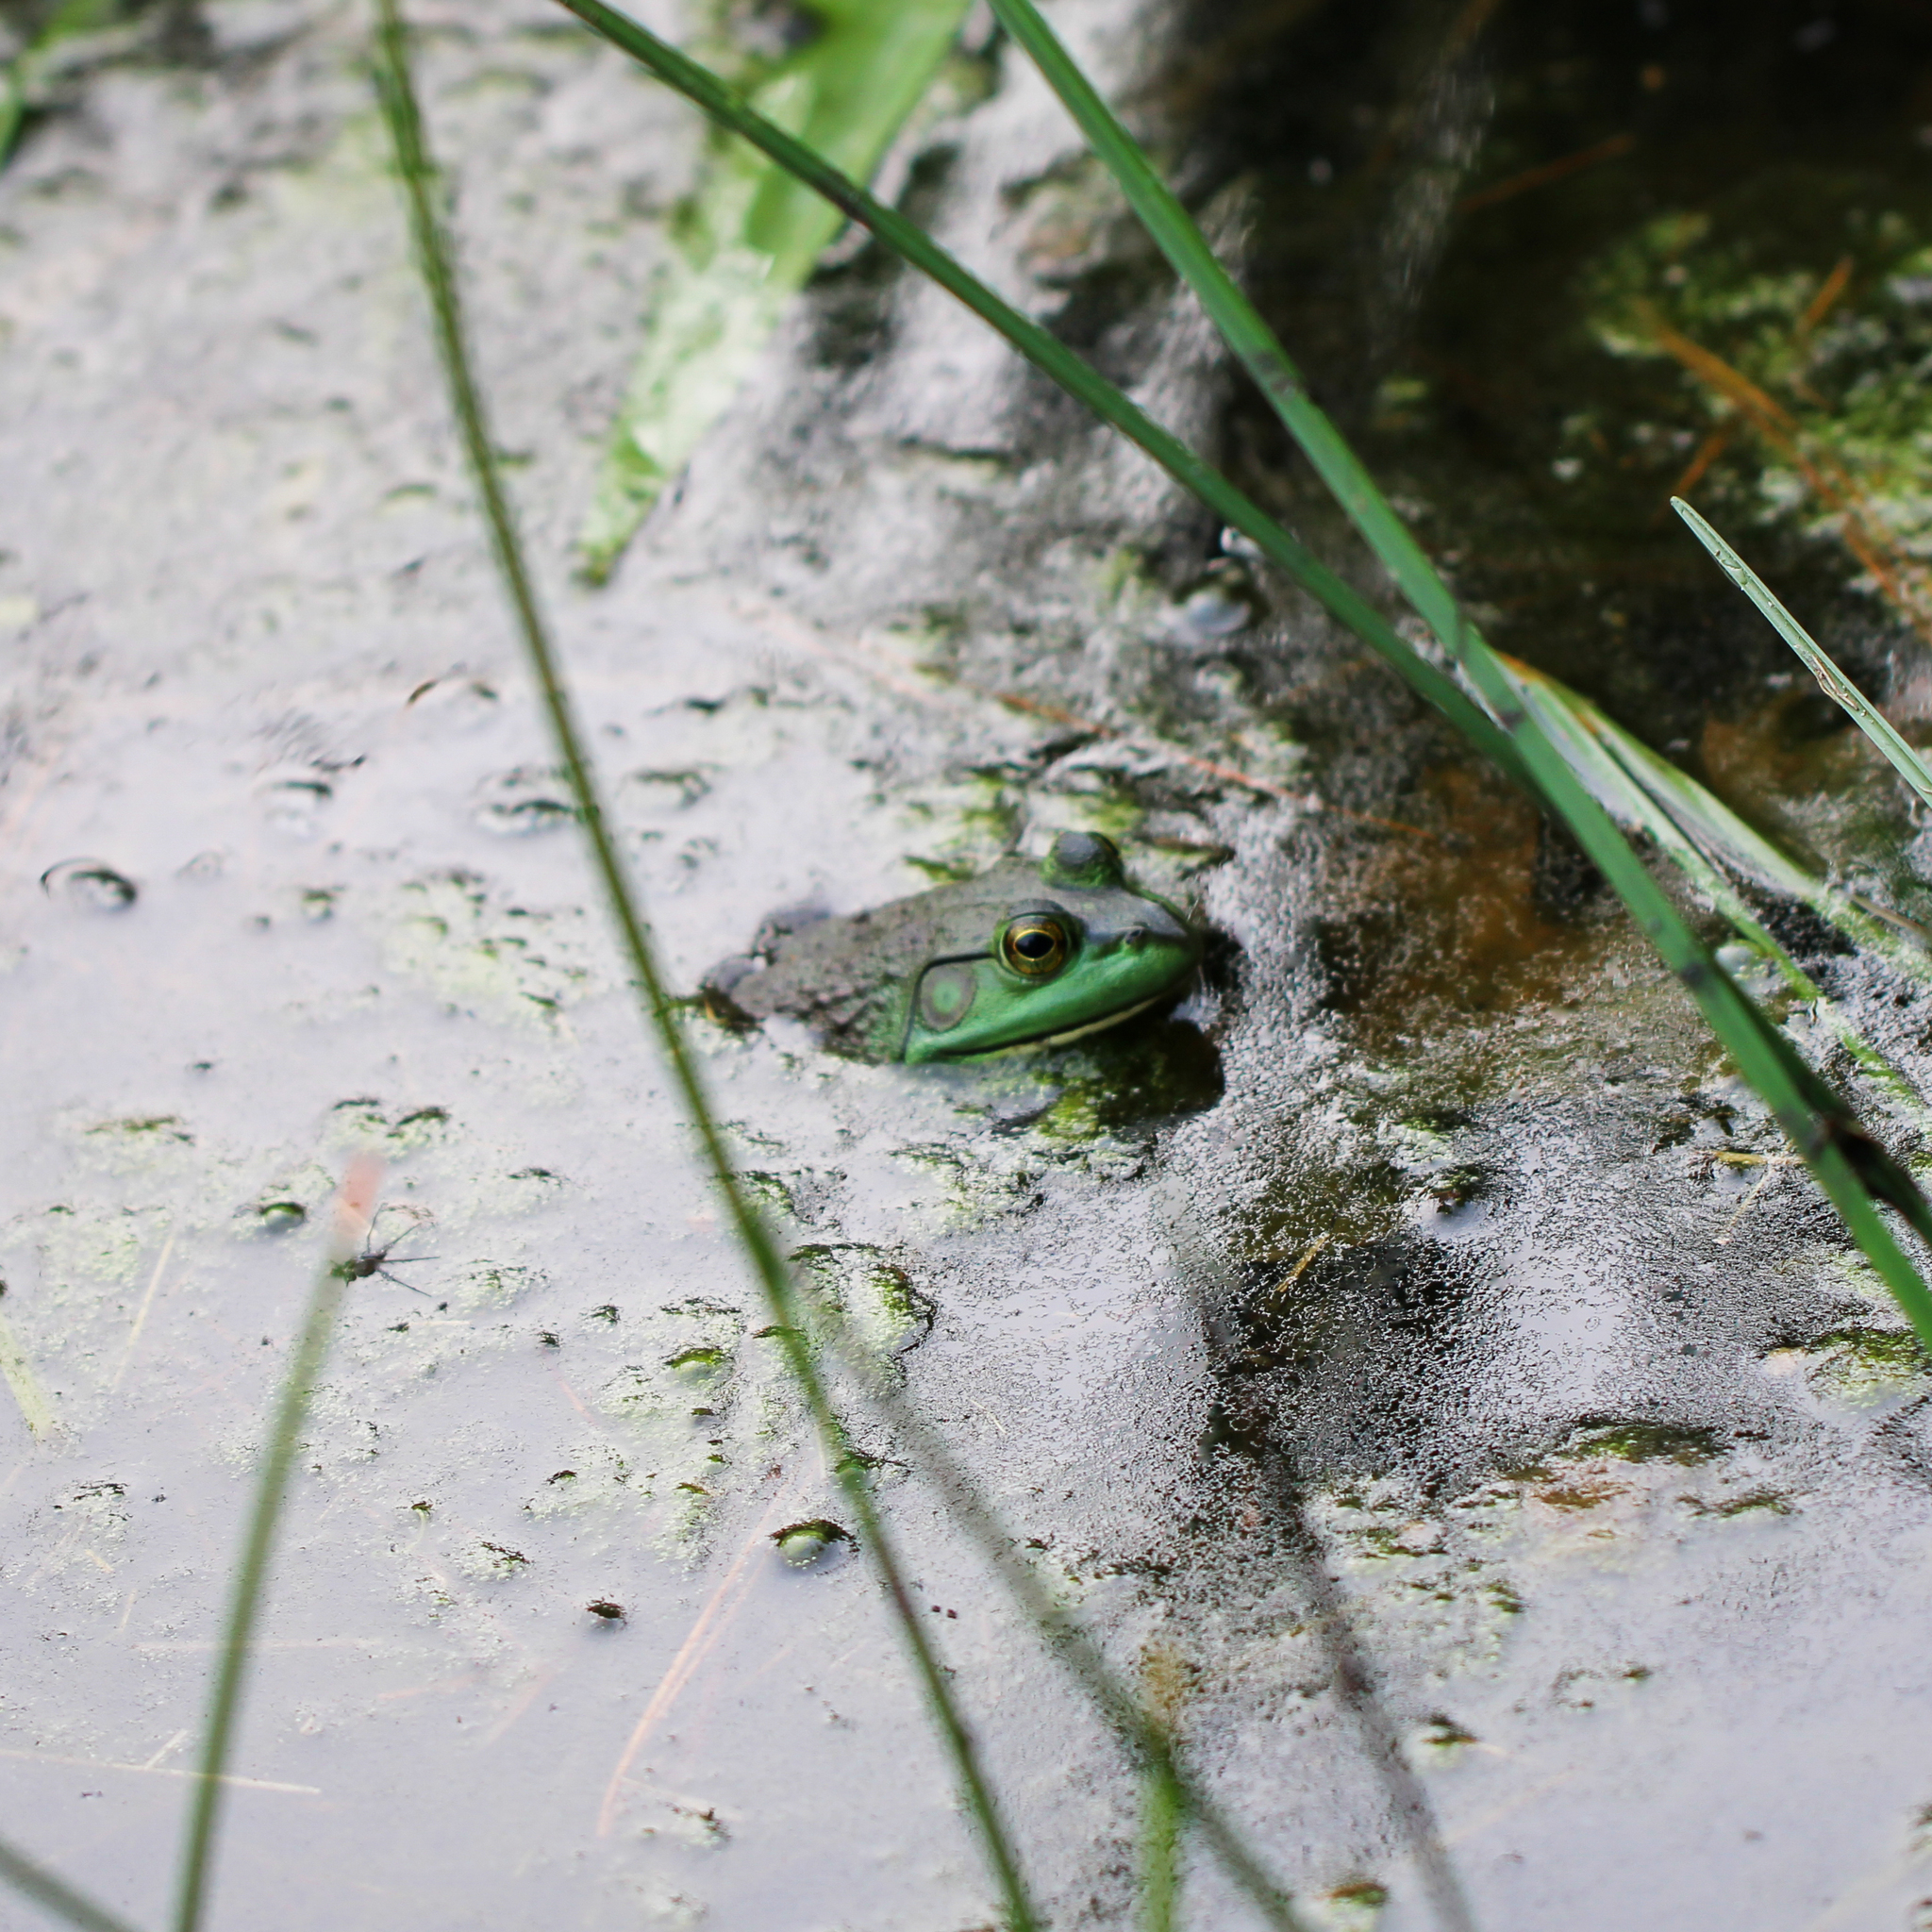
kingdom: Animalia
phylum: Chordata
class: Amphibia
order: Anura
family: Ranidae
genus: Lithobates
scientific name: Lithobates catesbeianus
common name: American bullfrog
